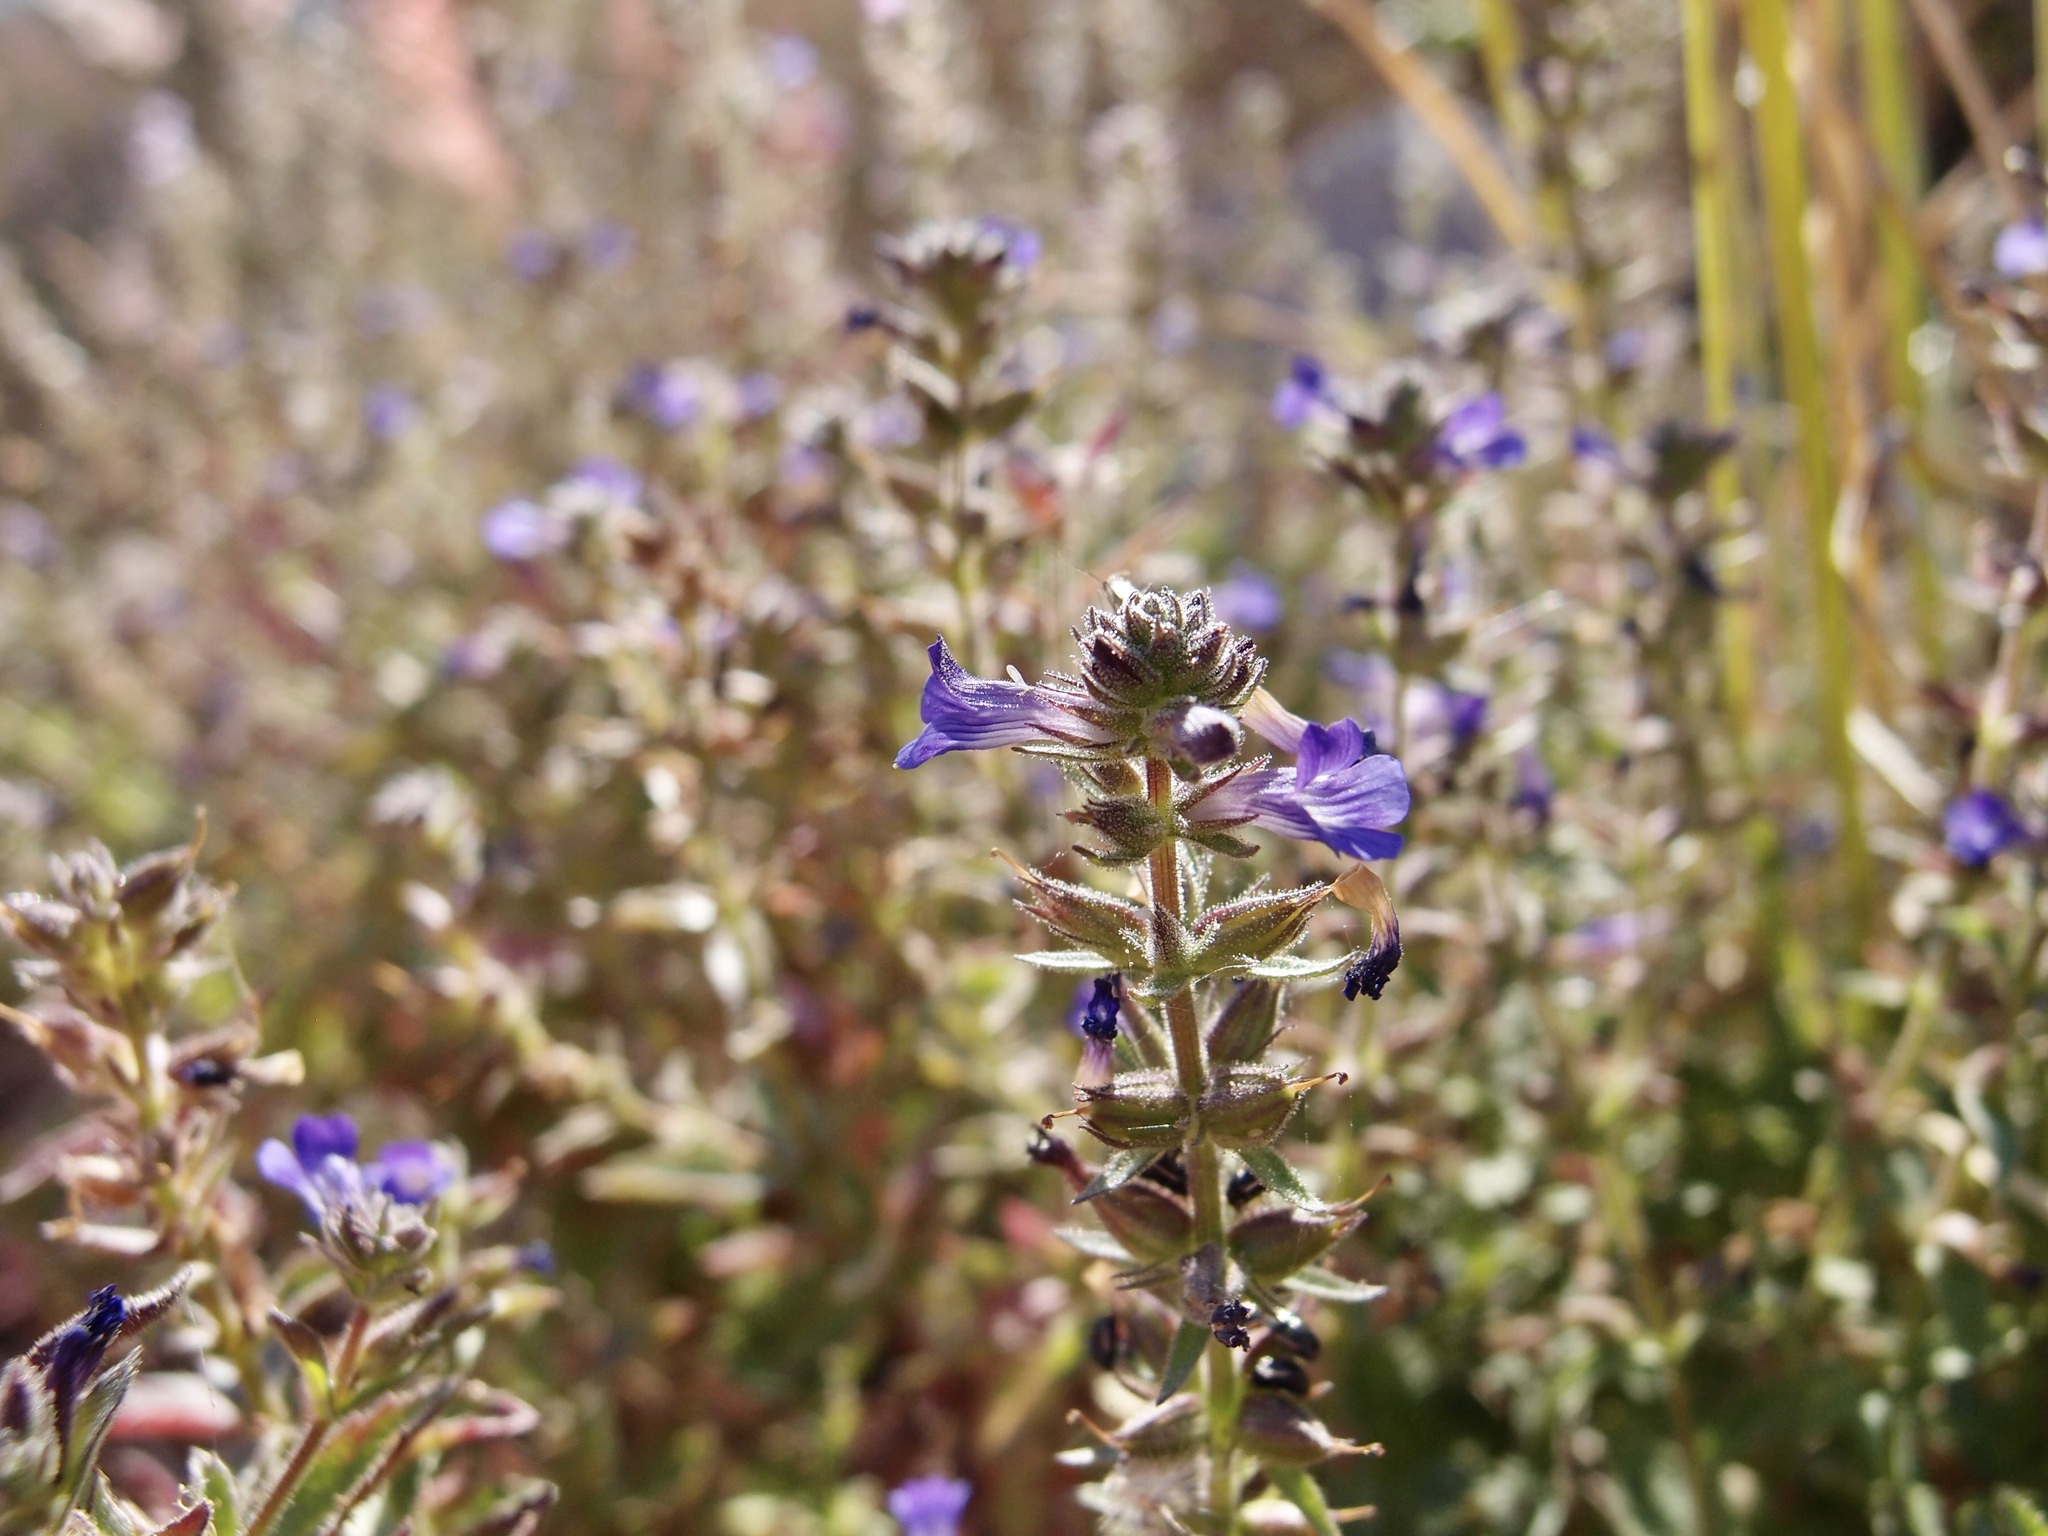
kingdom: Plantae
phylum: Tracheophyta
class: Magnoliopsida
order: Lamiales
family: Plantaginaceae
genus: Stemodia
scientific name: Stemodia durantifolia
